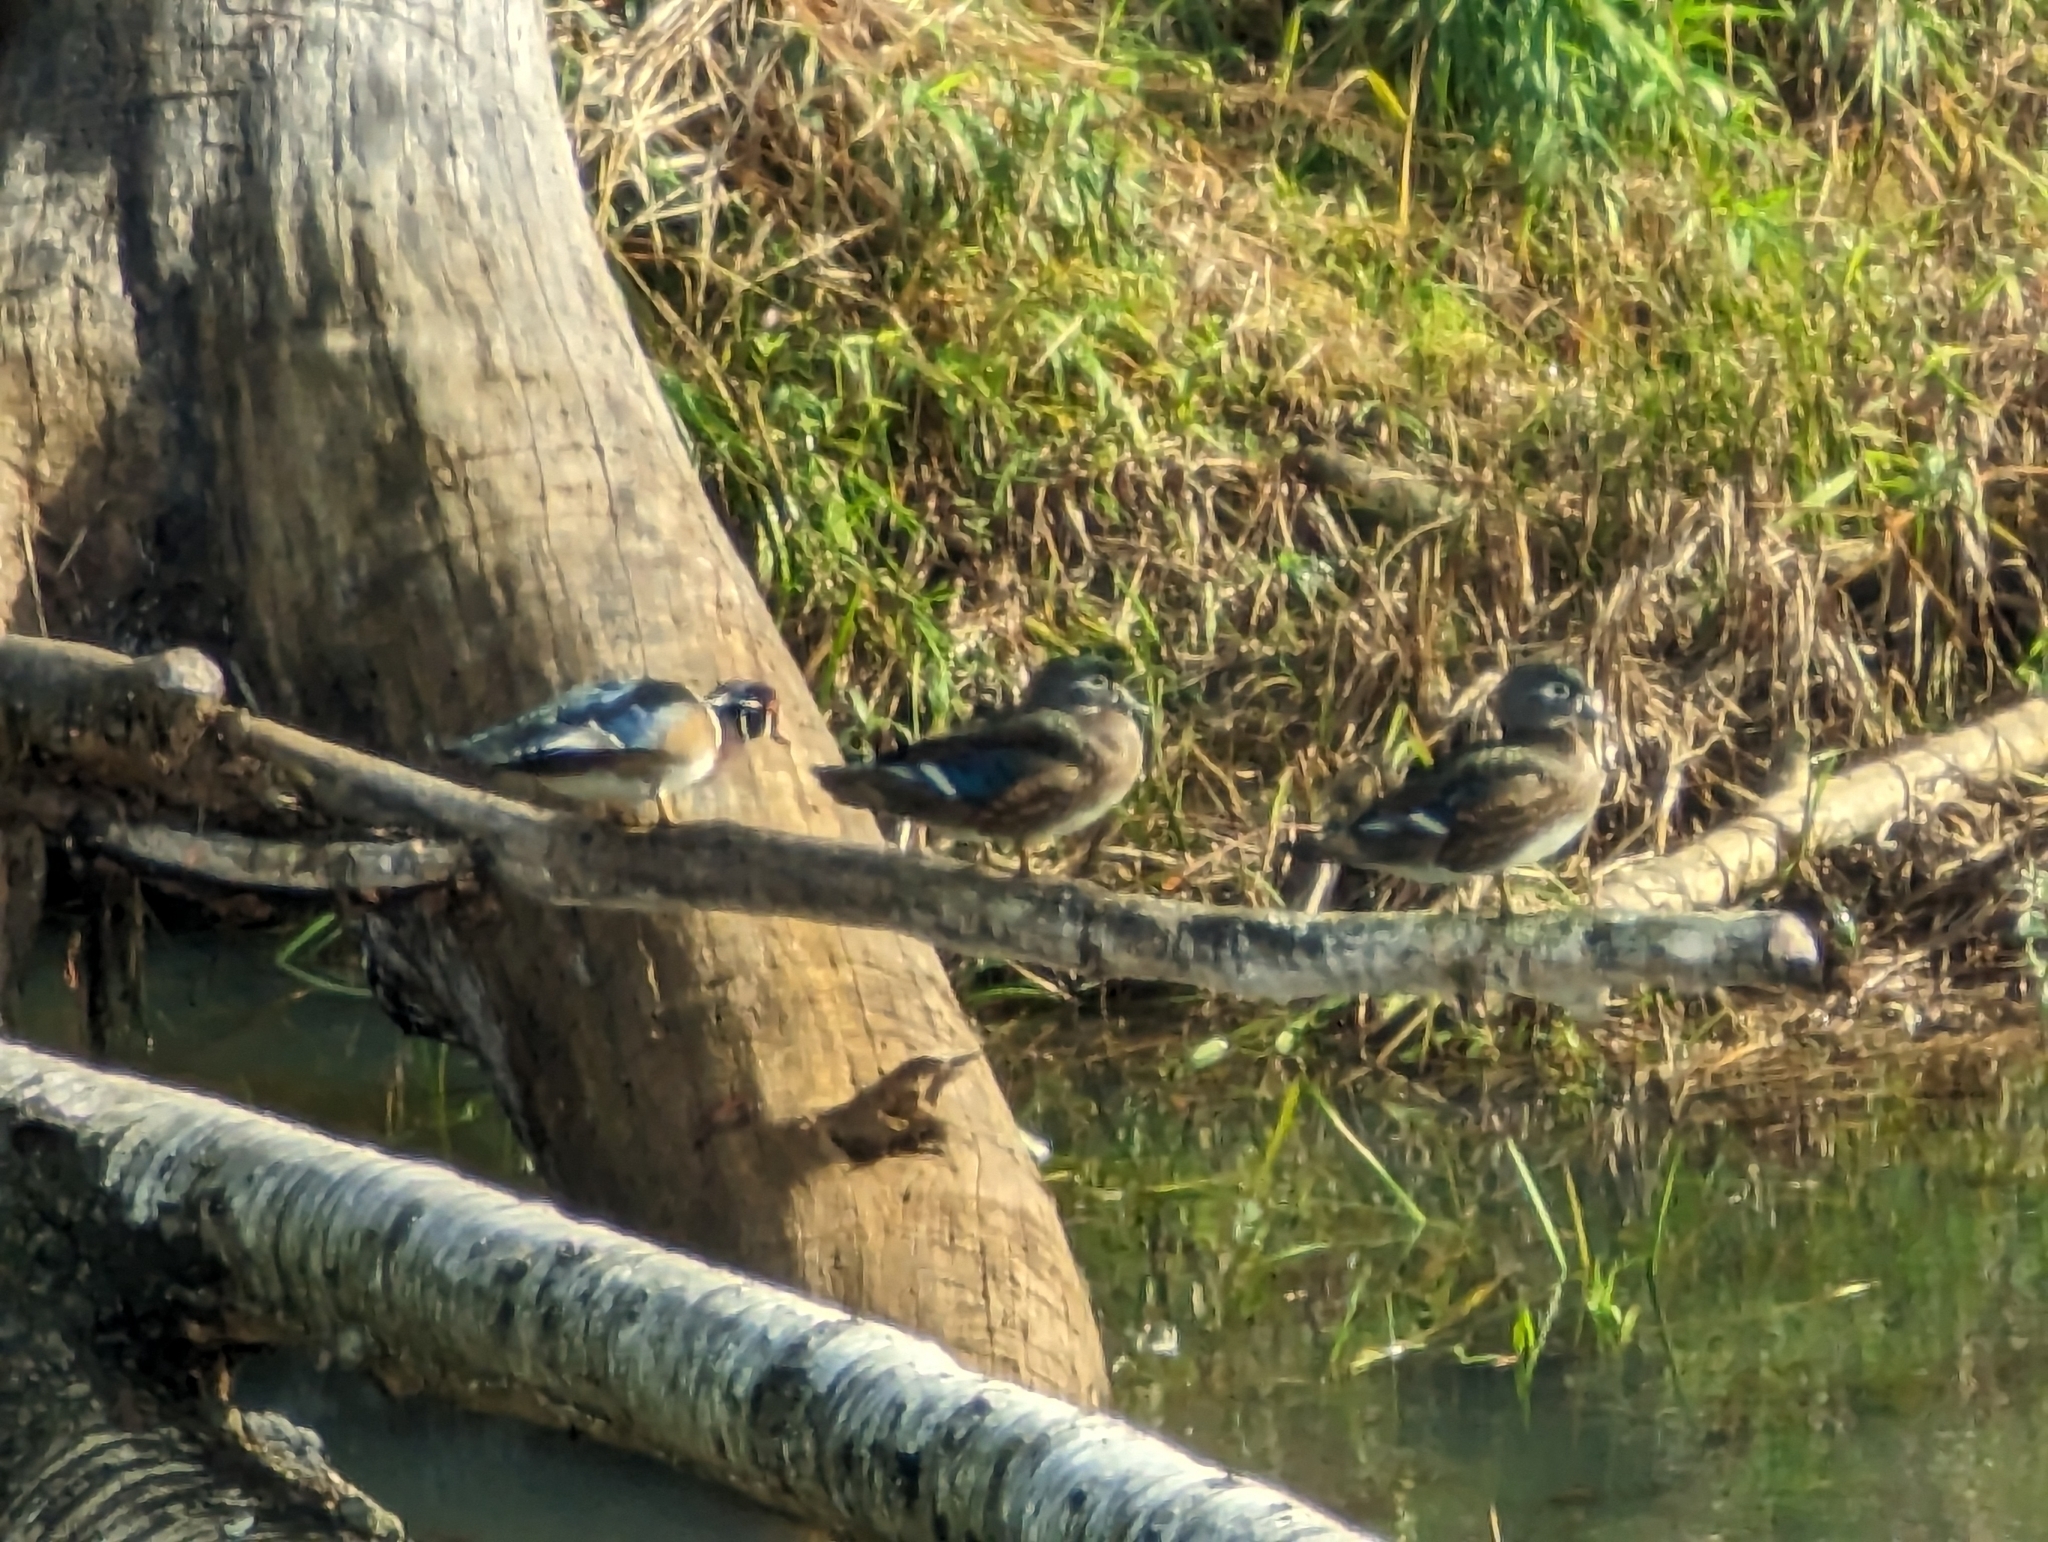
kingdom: Animalia
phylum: Chordata
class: Aves
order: Anseriformes
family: Anatidae
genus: Aix
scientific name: Aix sponsa
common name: Wood duck
